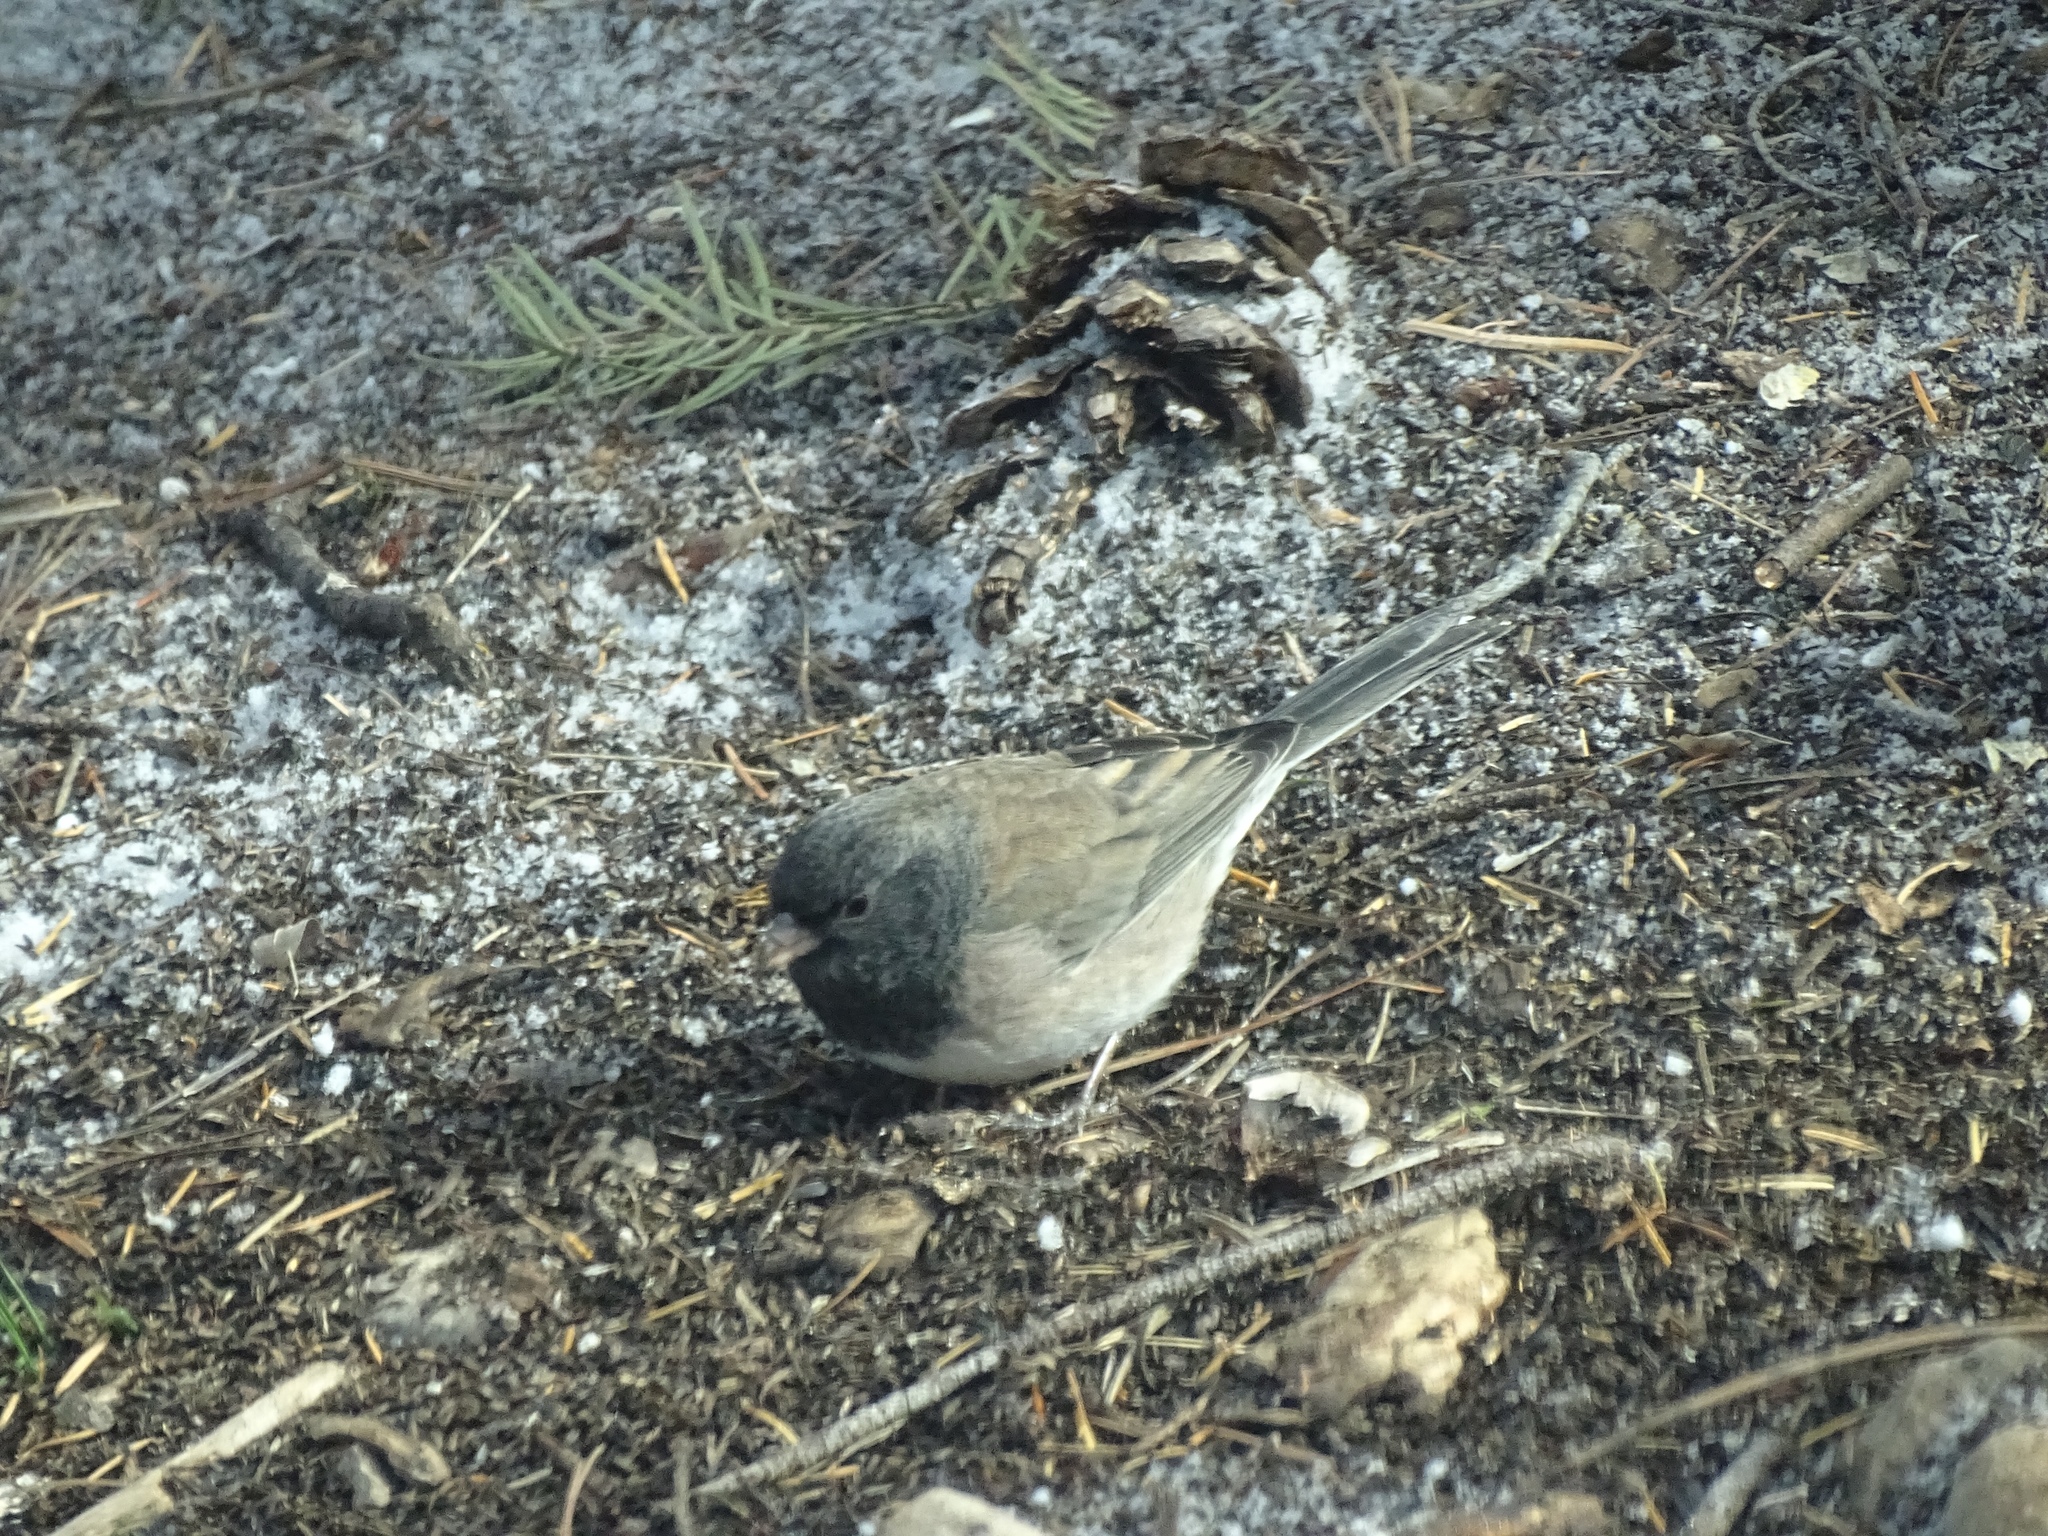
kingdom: Animalia
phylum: Chordata
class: Aves
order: Passeriformes
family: Passerellidae
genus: Junco
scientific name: Junco hyemalis
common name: Dark-eyed junco
